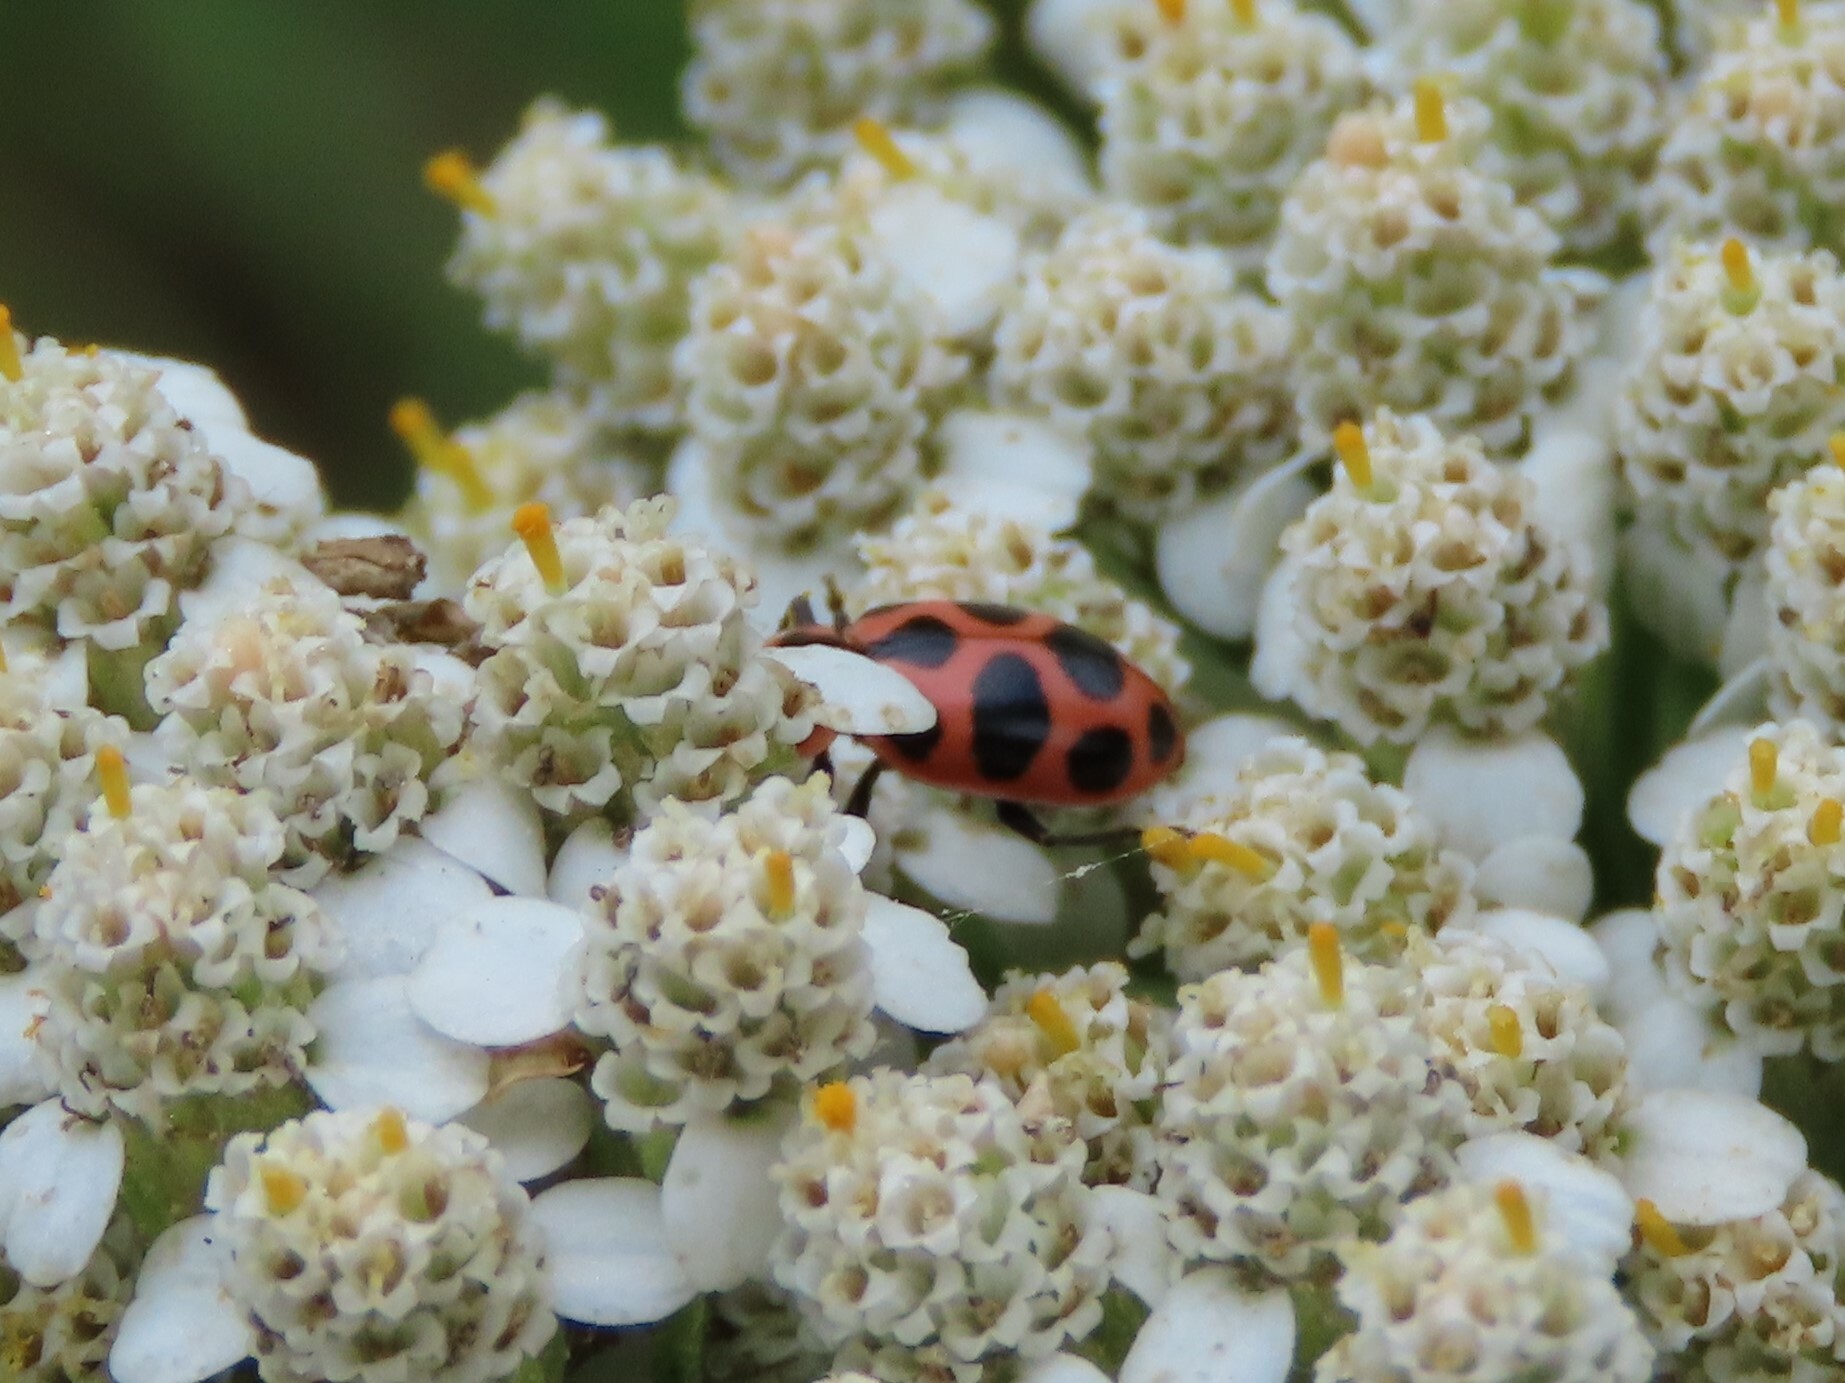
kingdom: Animalia
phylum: Arthropoda
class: Insecta
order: Coleoptera
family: Coccinellidae
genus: Coleomegilla
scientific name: Coleomegilla maculata
